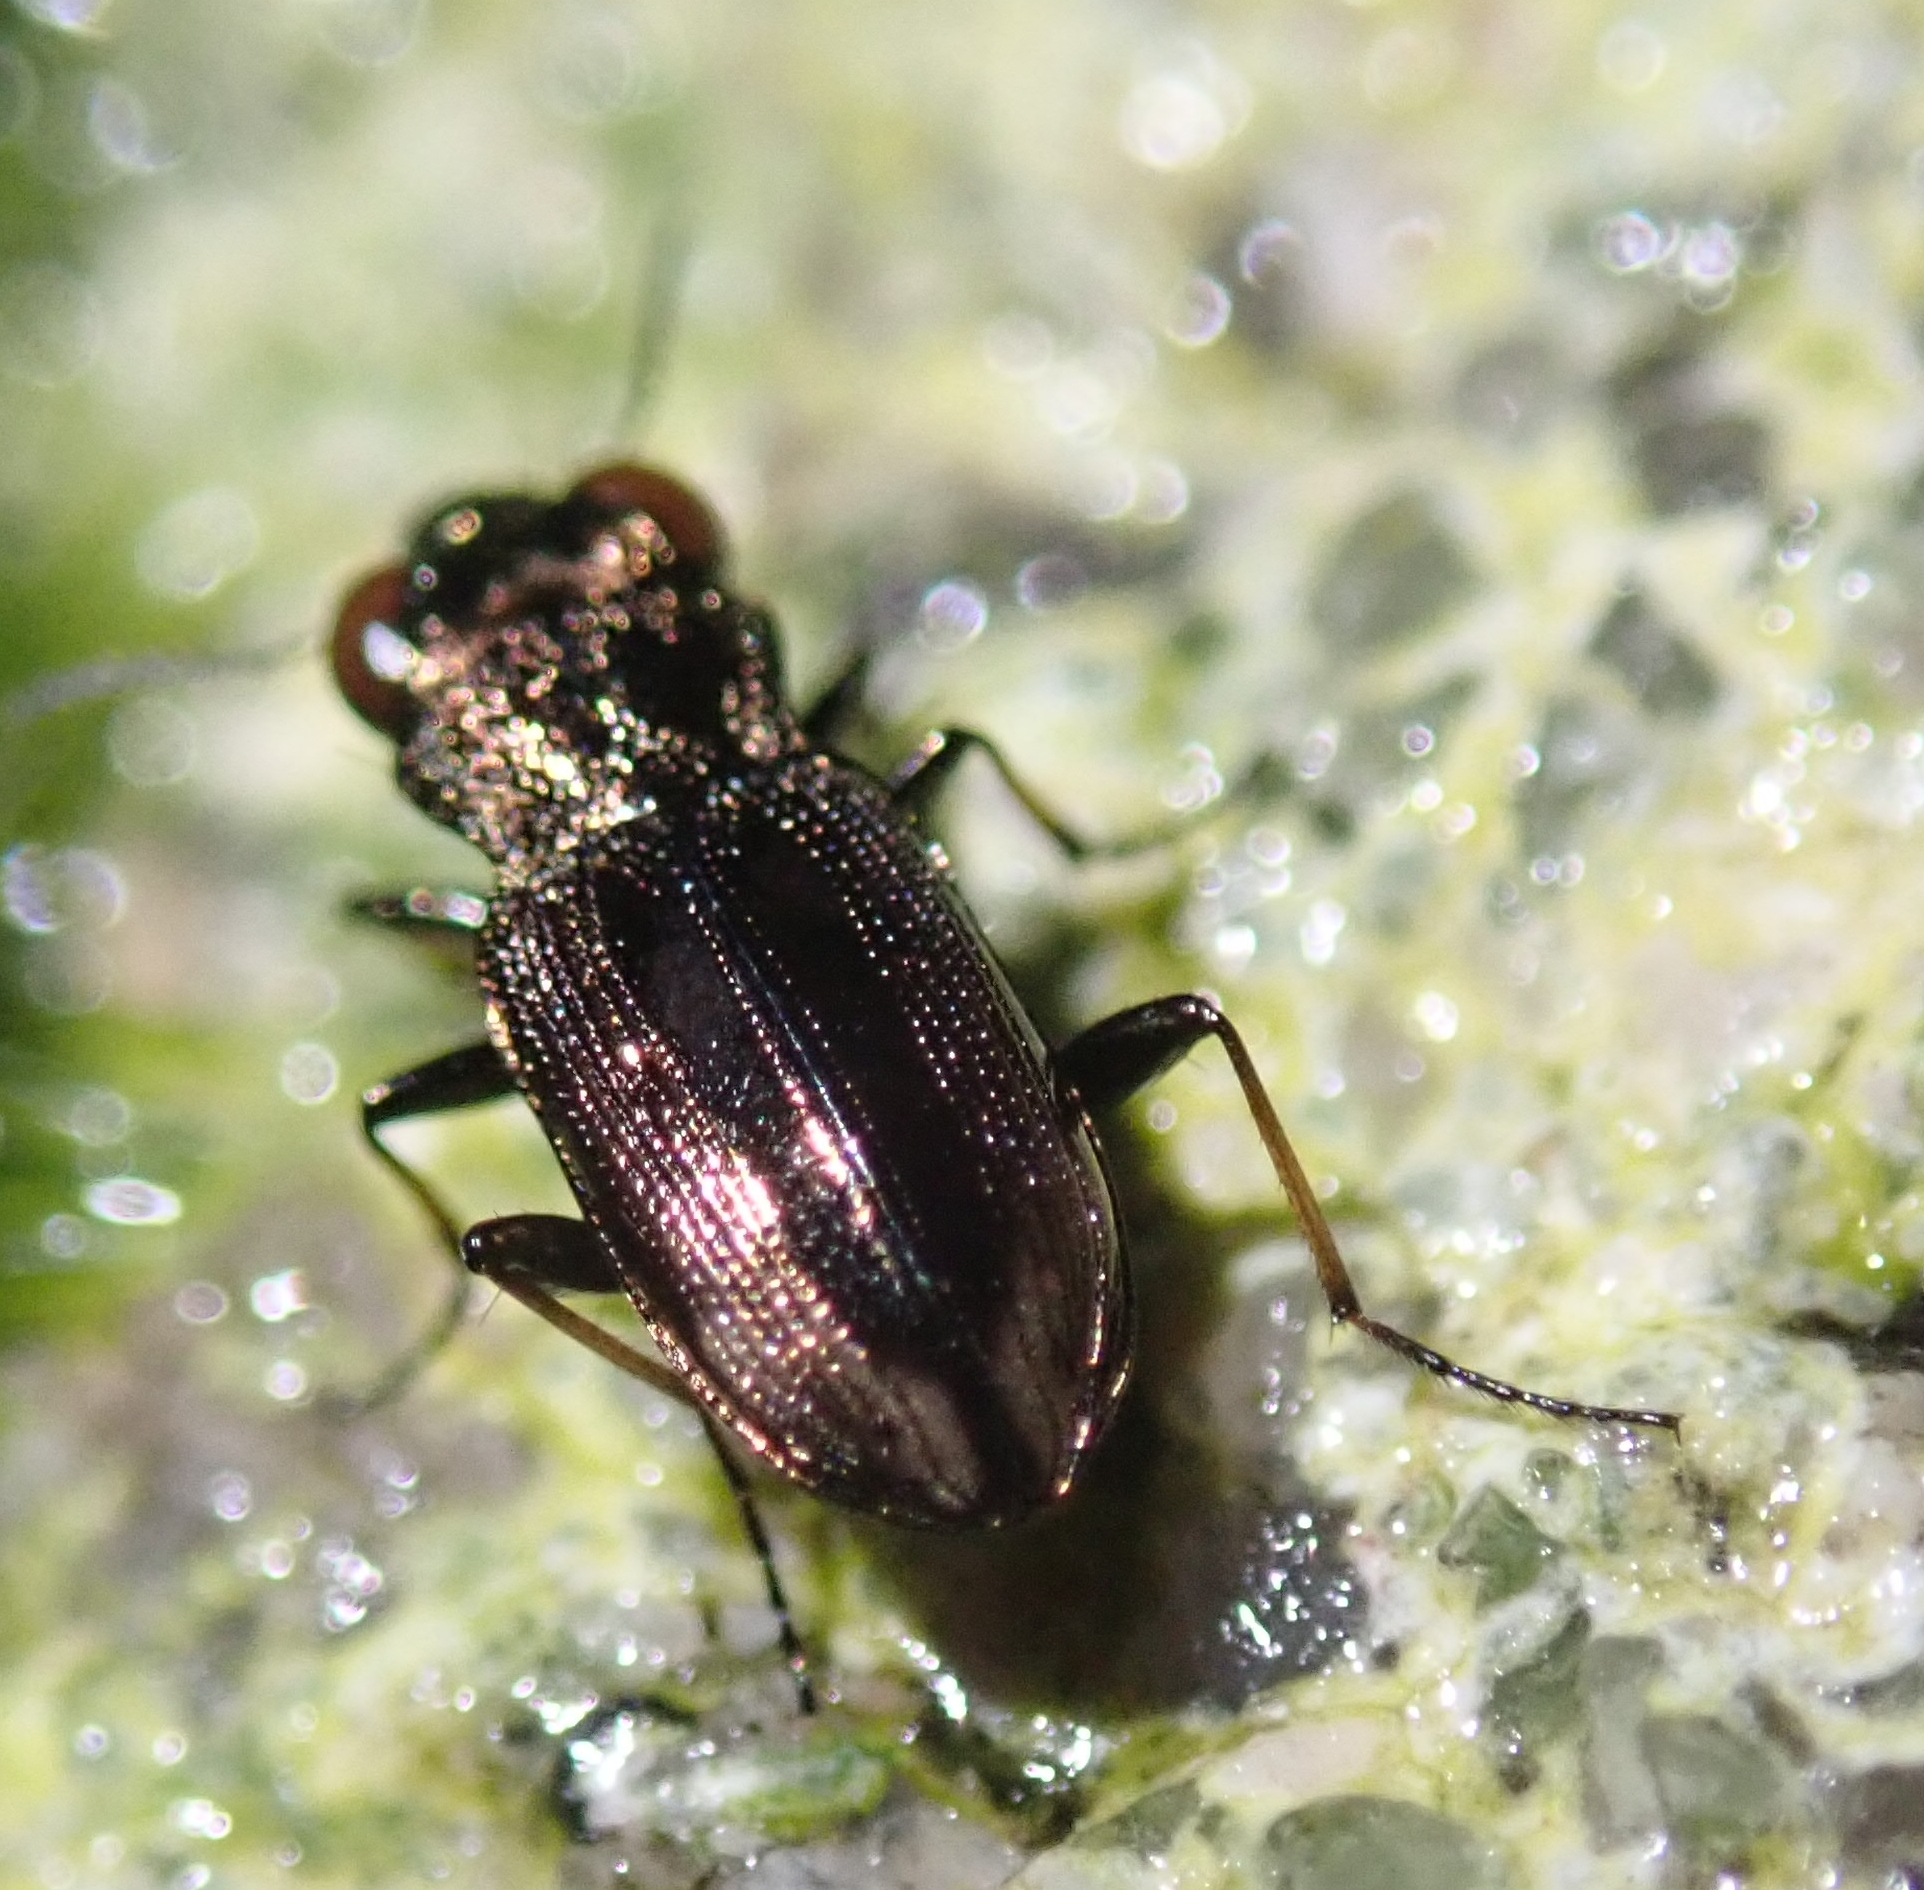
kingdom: Animalia
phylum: Arthropoda
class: Insecta
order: Coleoptera
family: Carabidae
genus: Notiophilus
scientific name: Notiophilus biguttatus
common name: Spotted gazelle beetle
